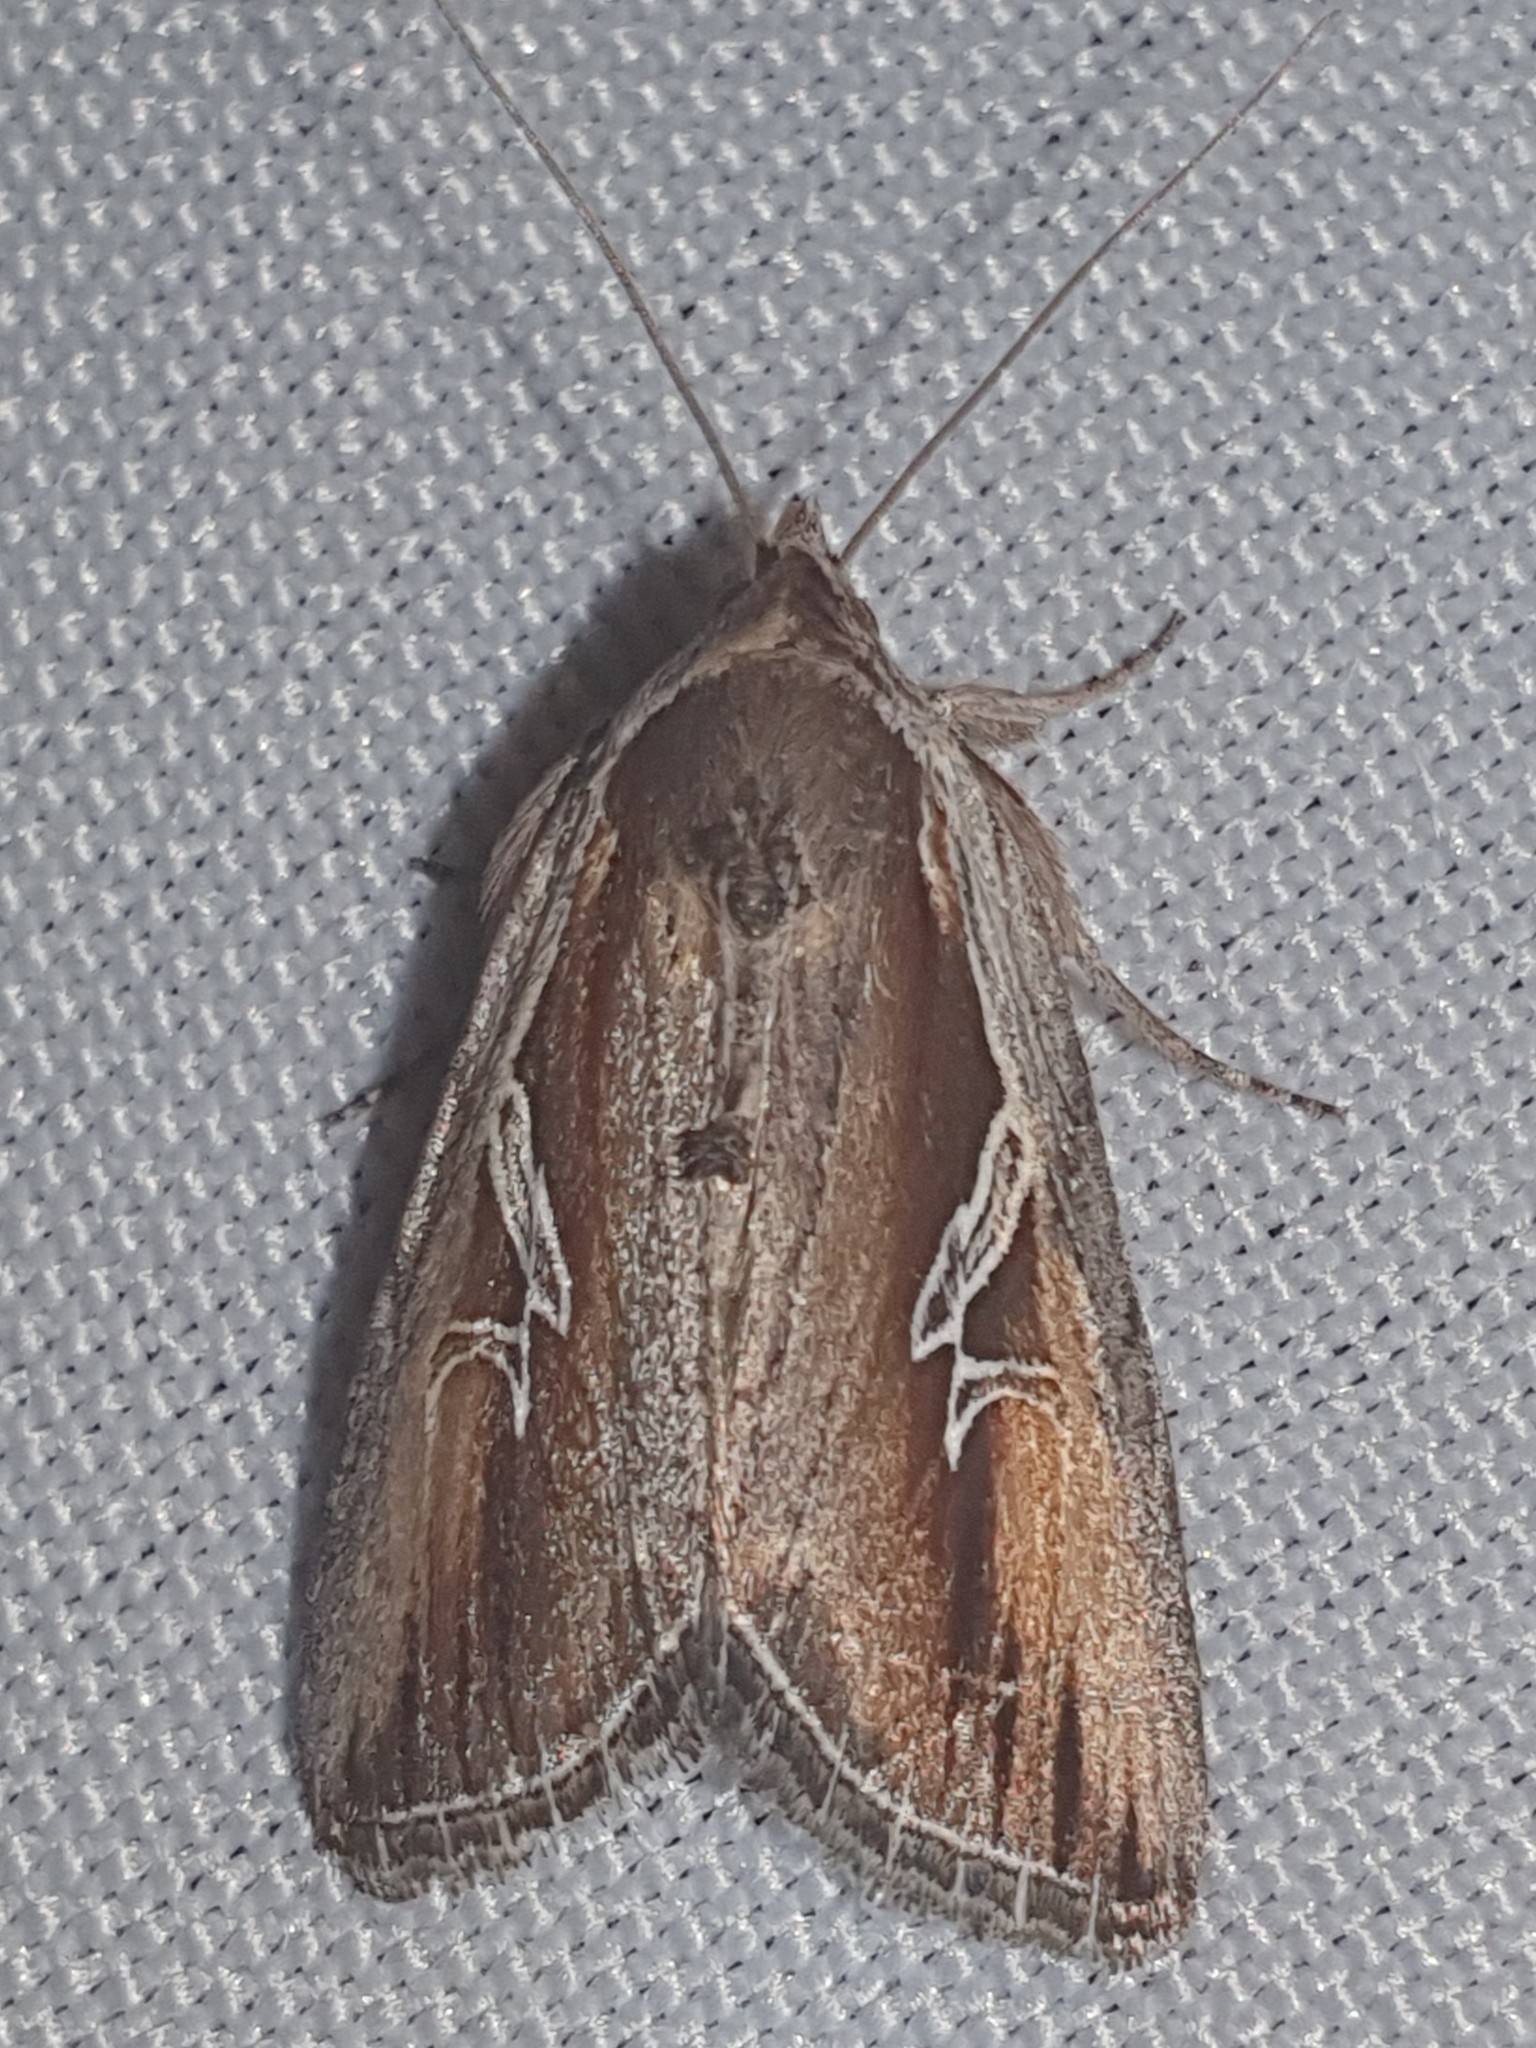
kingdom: Animalia
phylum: Arthropoda
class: Insecta
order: Lepidoptera
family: Noctuidae
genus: Lophoterges
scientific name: Lophoterges millierei
